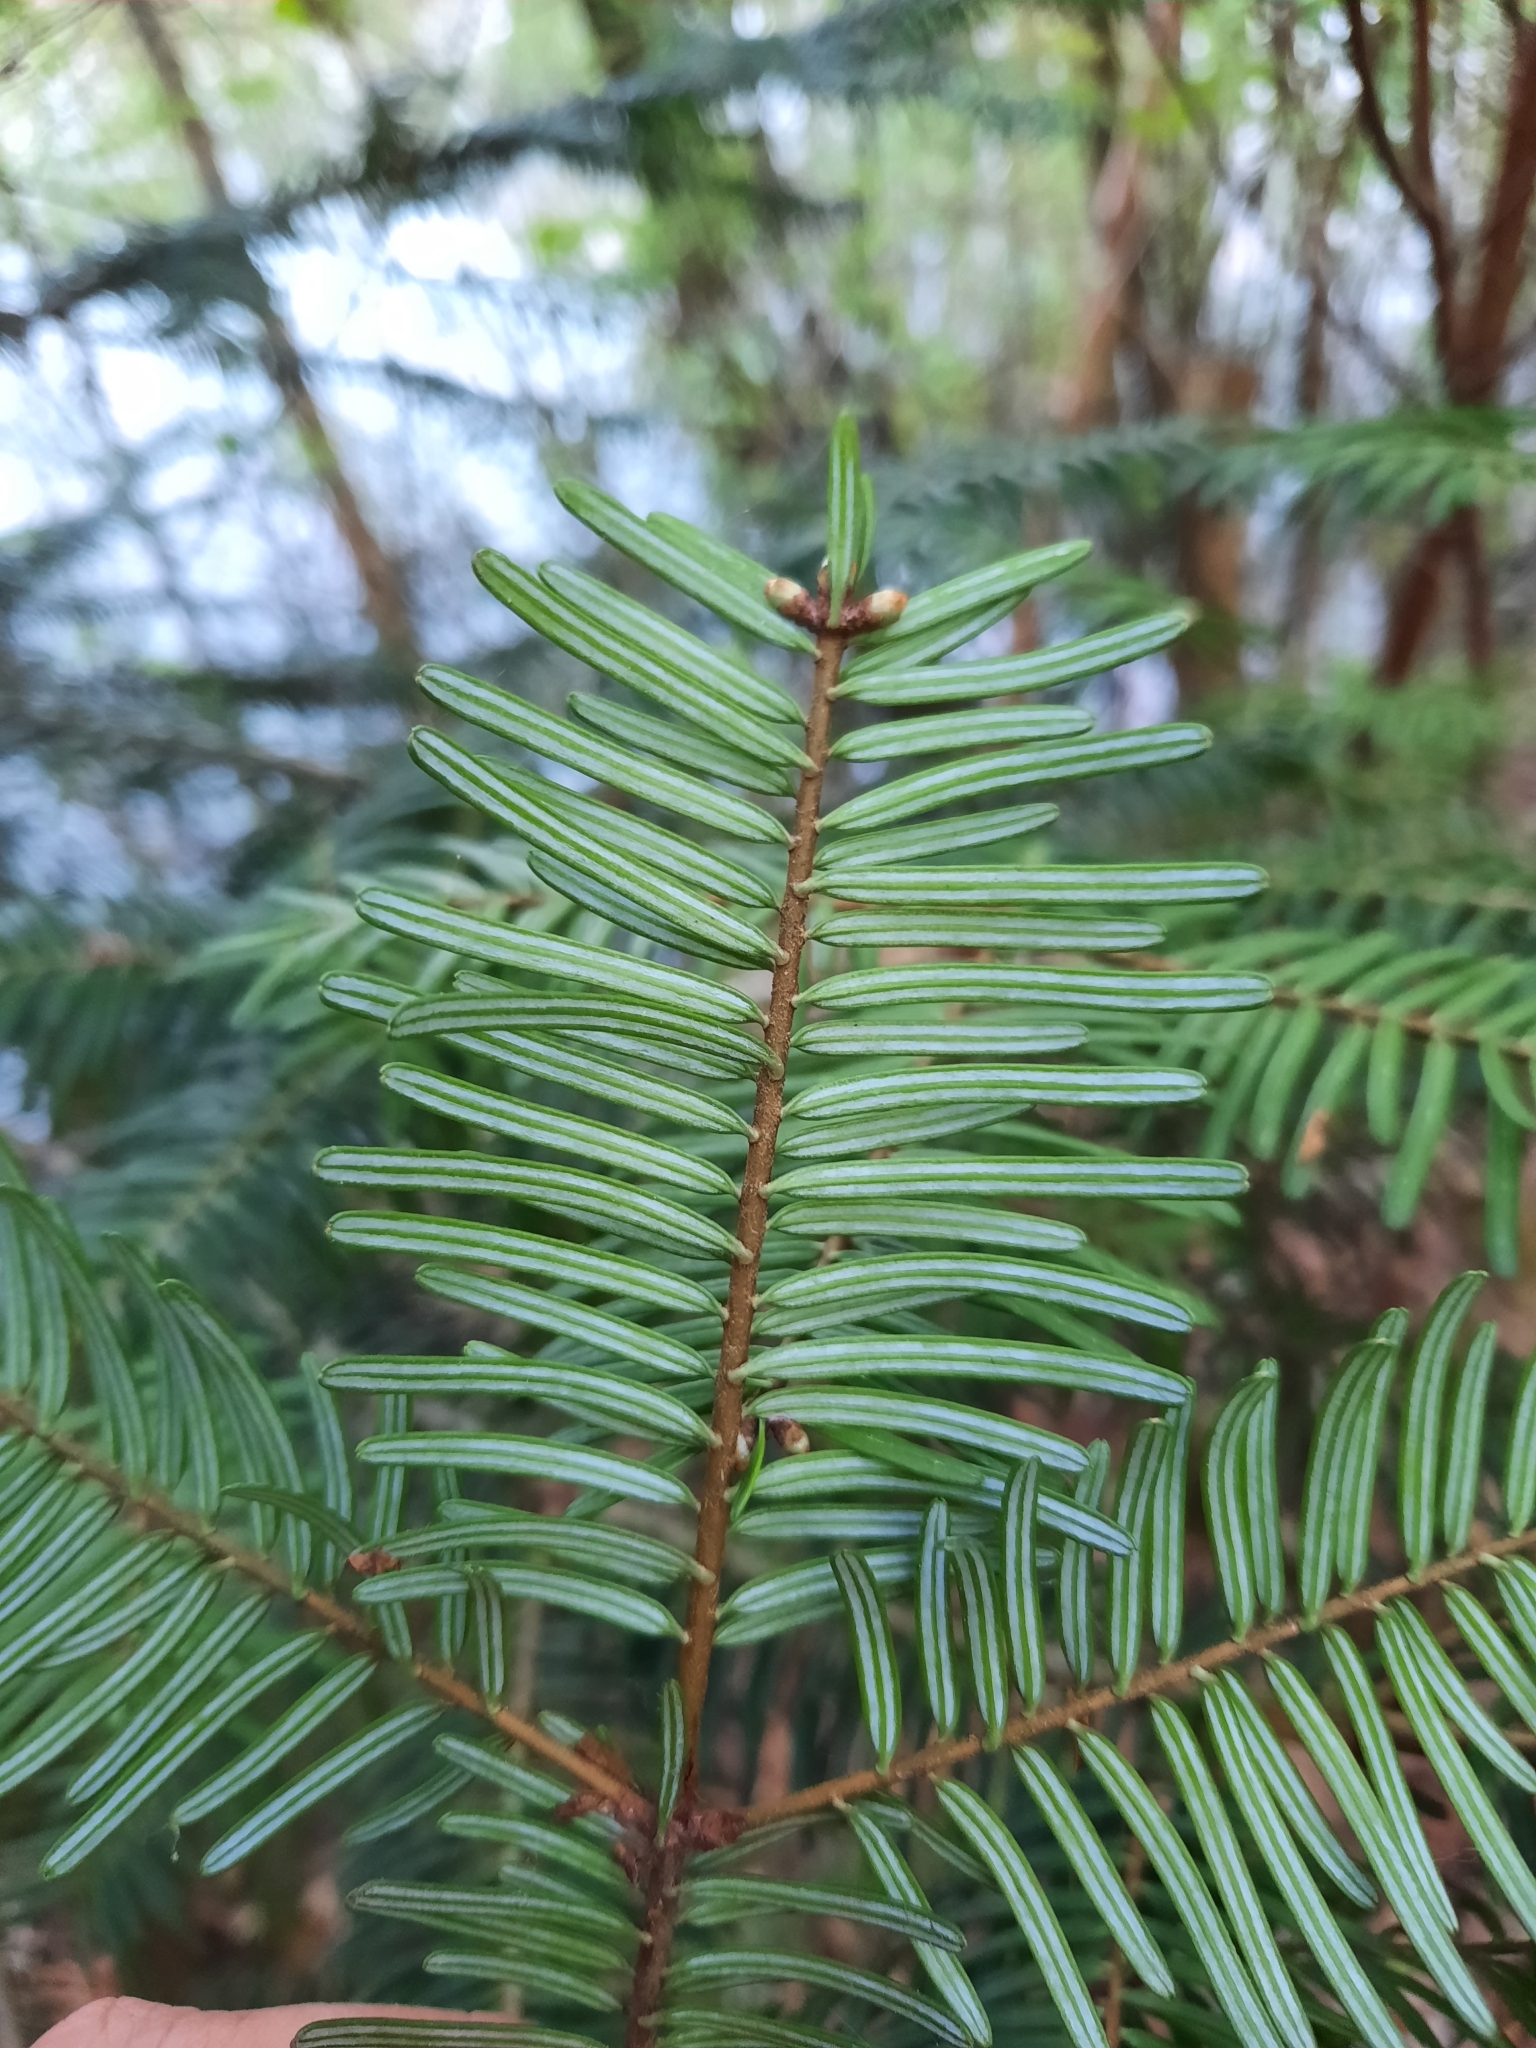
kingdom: Plantae
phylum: Tracheophyta
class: Pinopsida
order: Pinales
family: Pinaceae
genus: Abies
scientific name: Abies grandis
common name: Giant fir
